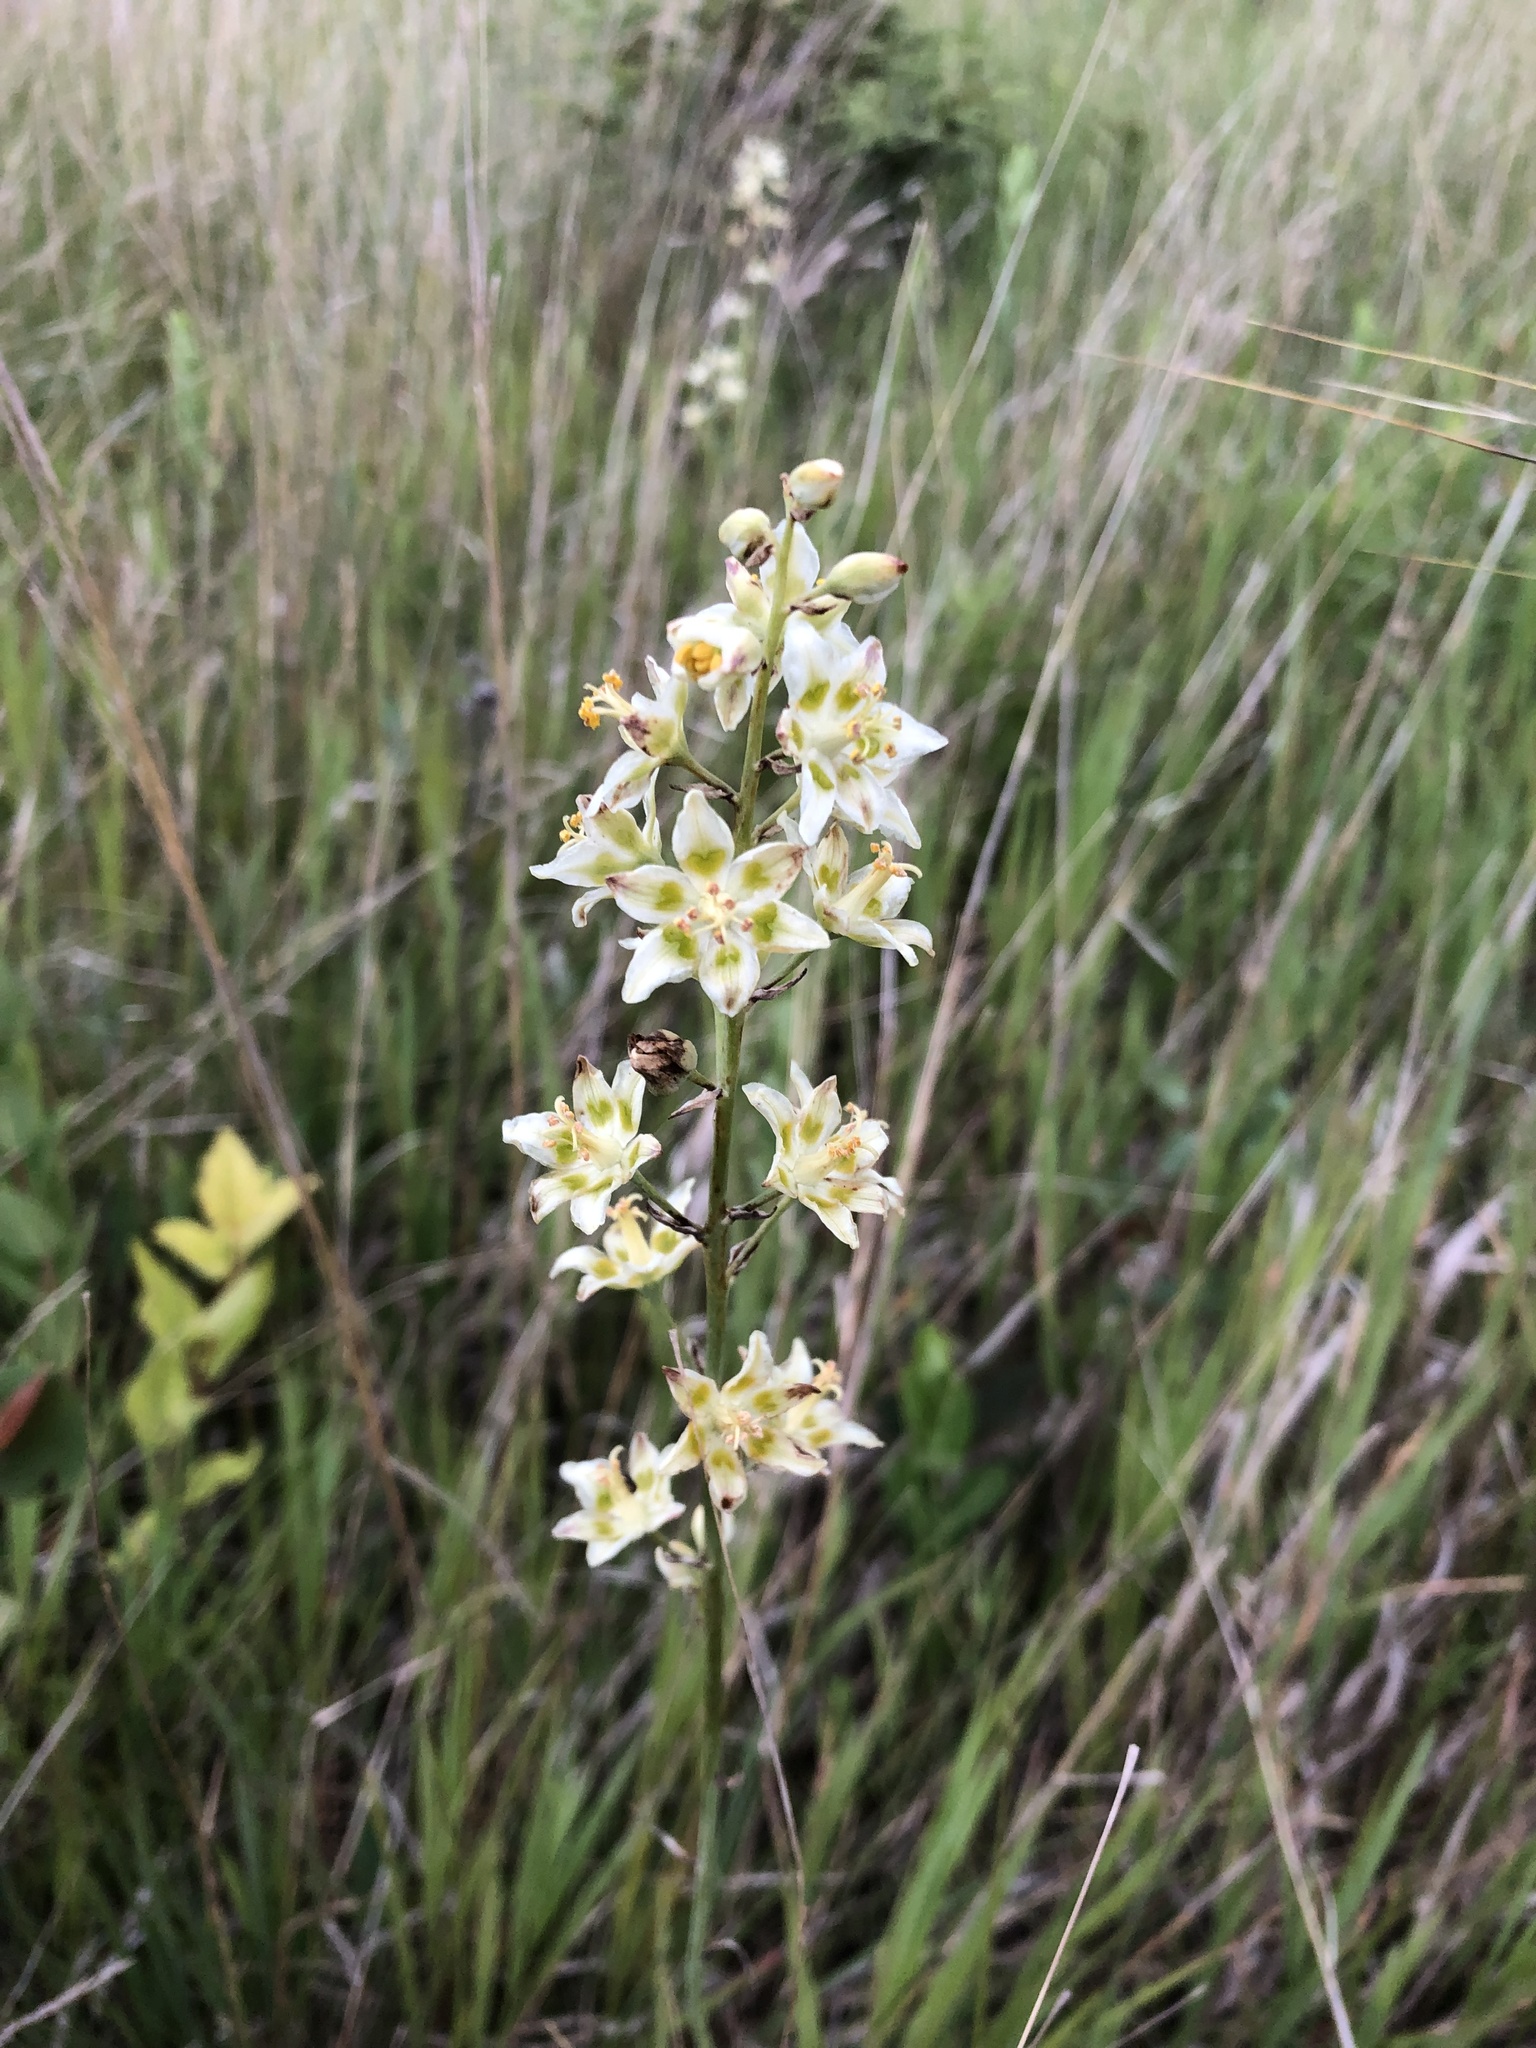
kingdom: Plantae
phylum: Tracheophyta
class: Liliopsida
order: Liliales
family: Melanthiaceae
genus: Anticlea
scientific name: Anticlea elegans
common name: Mountain death camas
